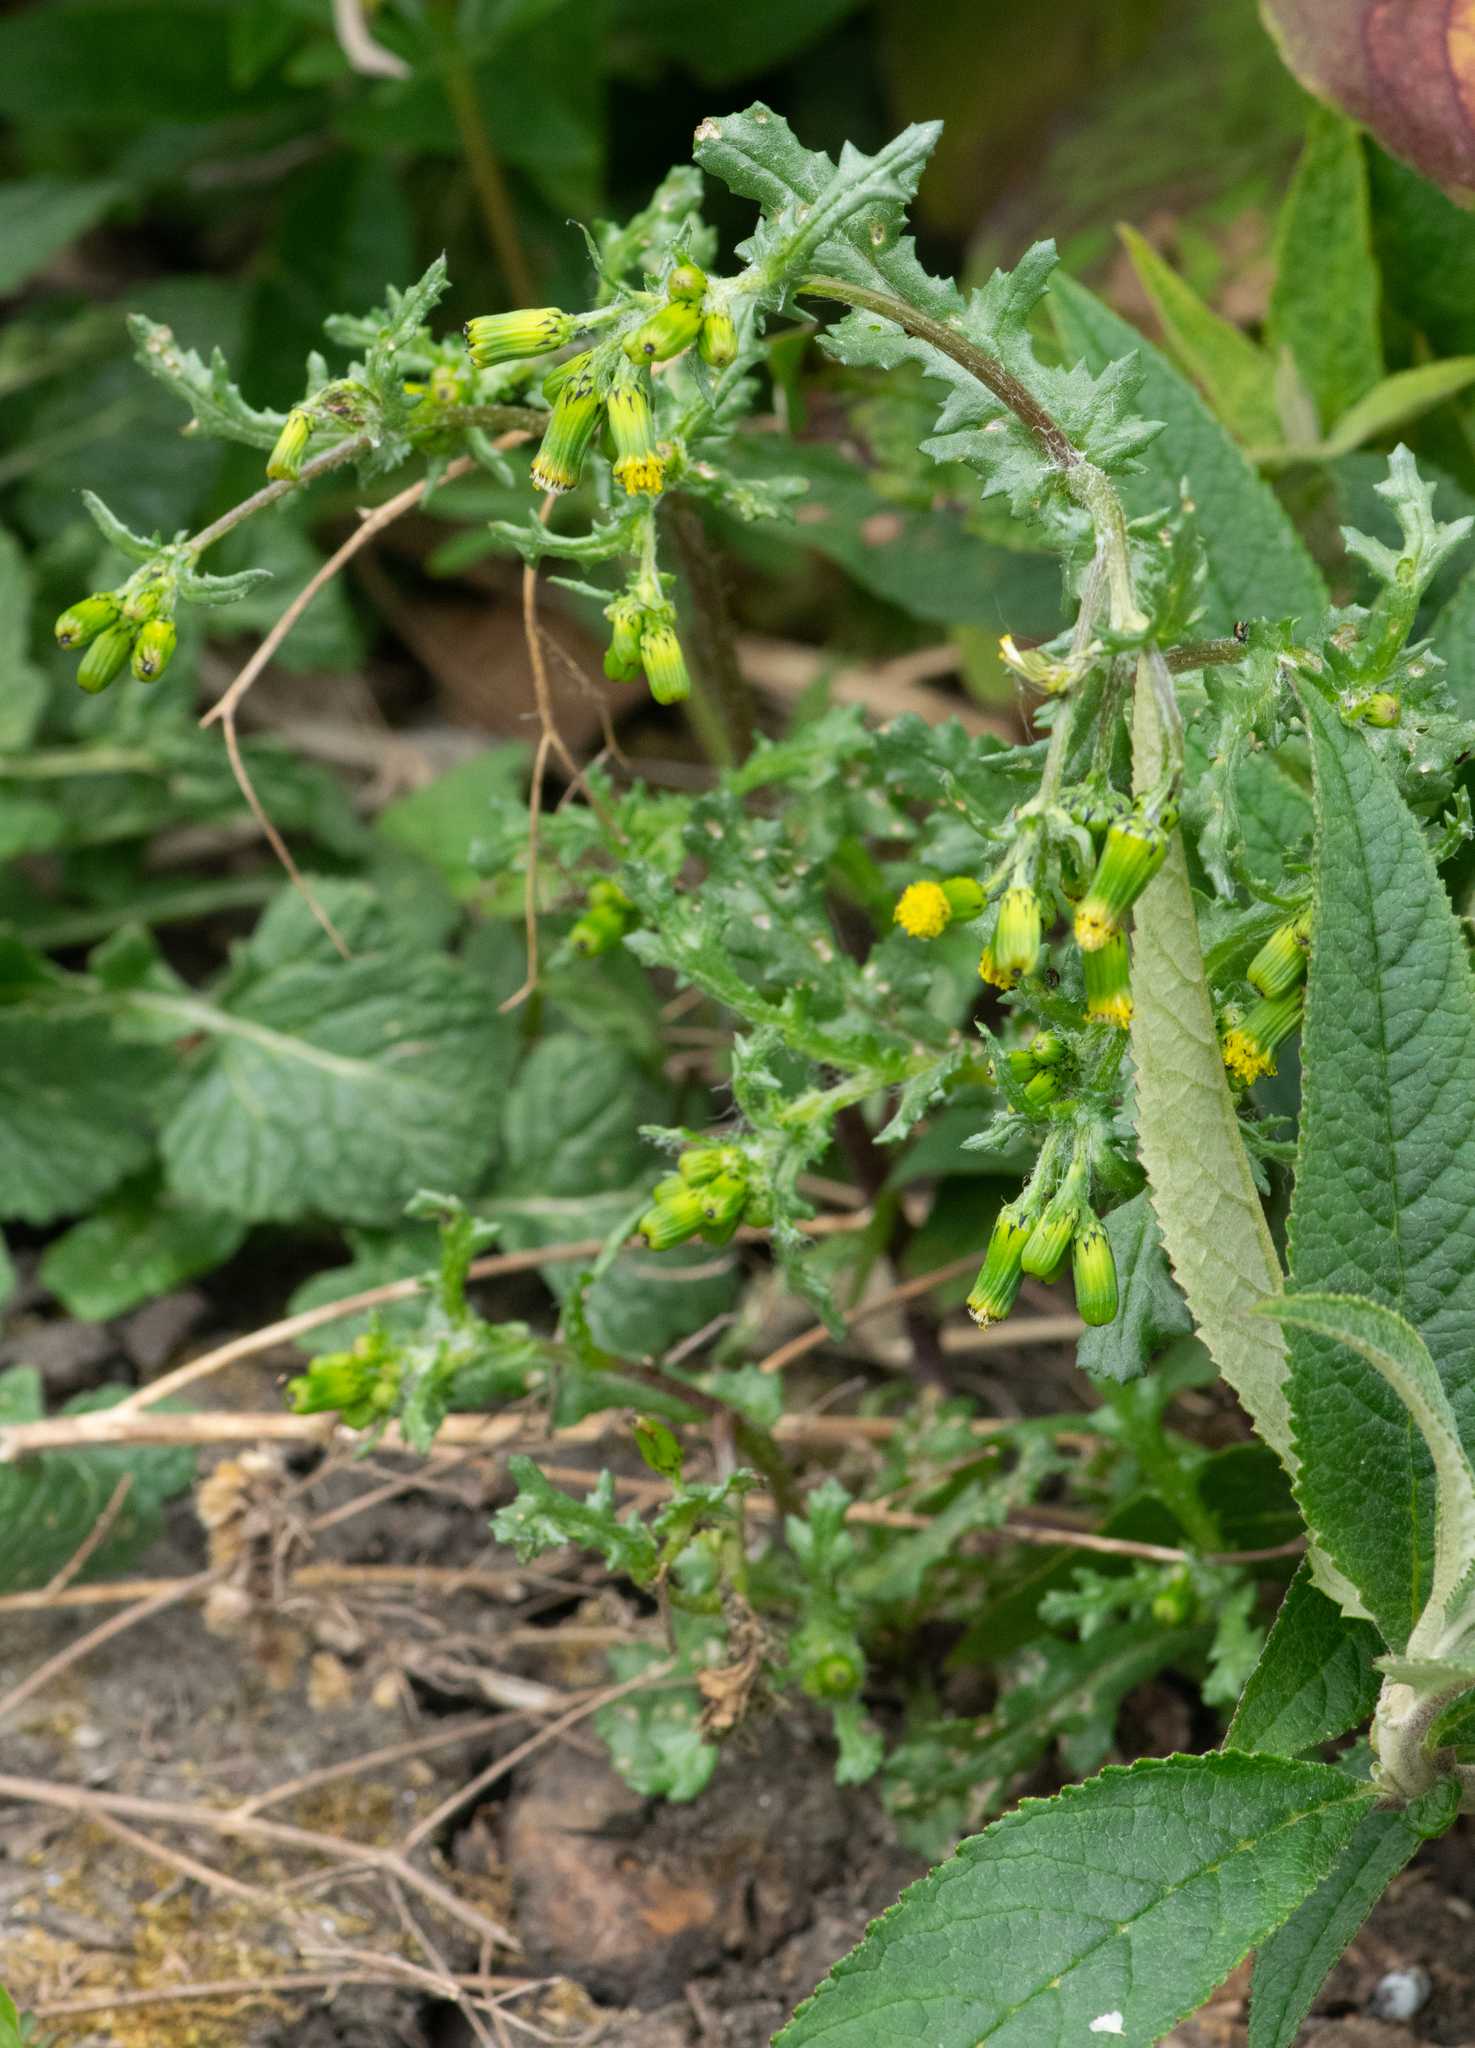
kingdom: Plantae
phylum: Tracheophyta
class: Magnoliopsida
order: Asterales
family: Asteraceae
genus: Senecio
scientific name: Senecio vulgaris
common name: Old-man-in-the-spring
